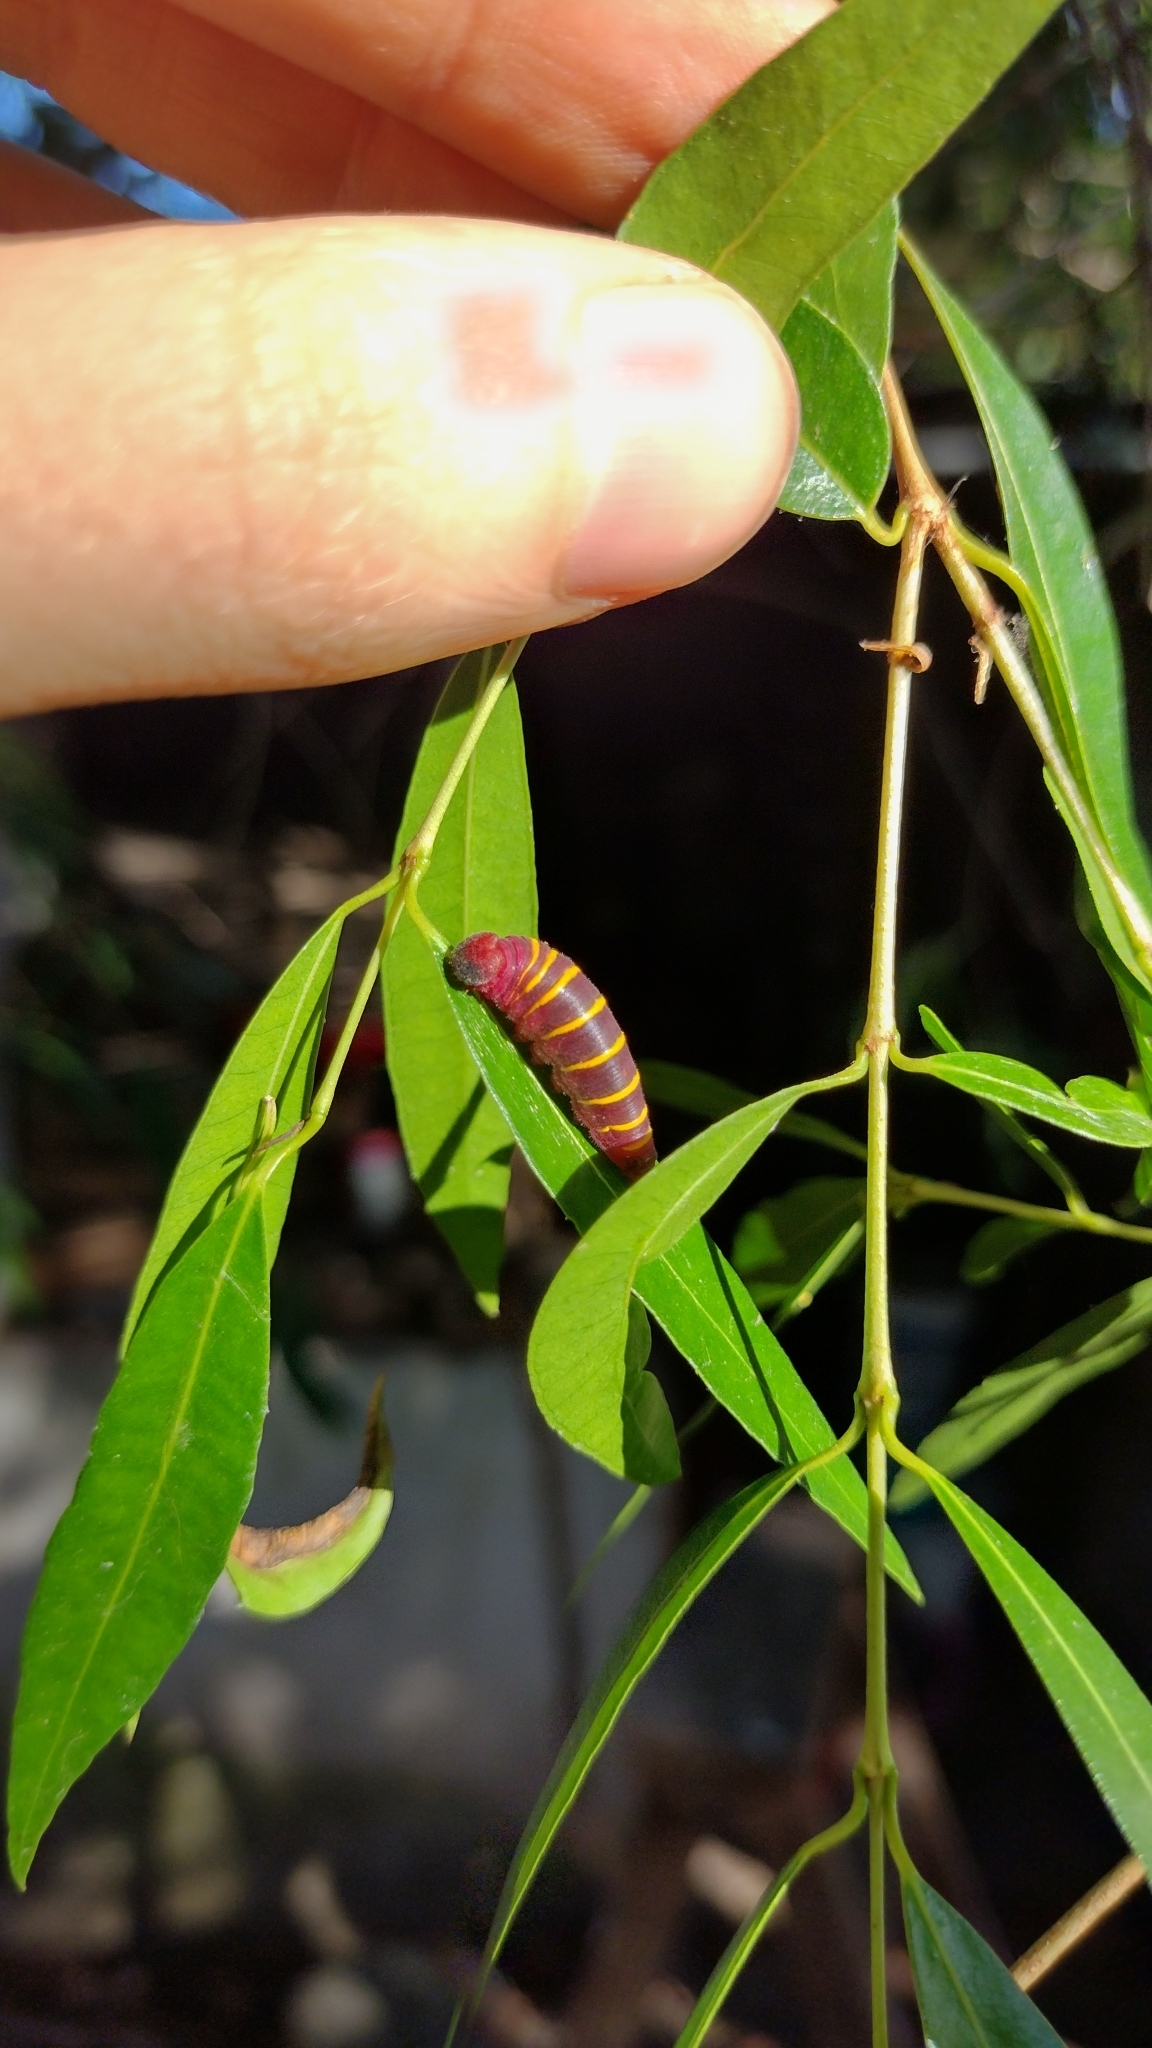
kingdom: Animalia
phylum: Arthropoda
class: Insecta
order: Lepidoptera
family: Hesperiidae
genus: Phocides
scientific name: Phocides polybius
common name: Guava skipper
